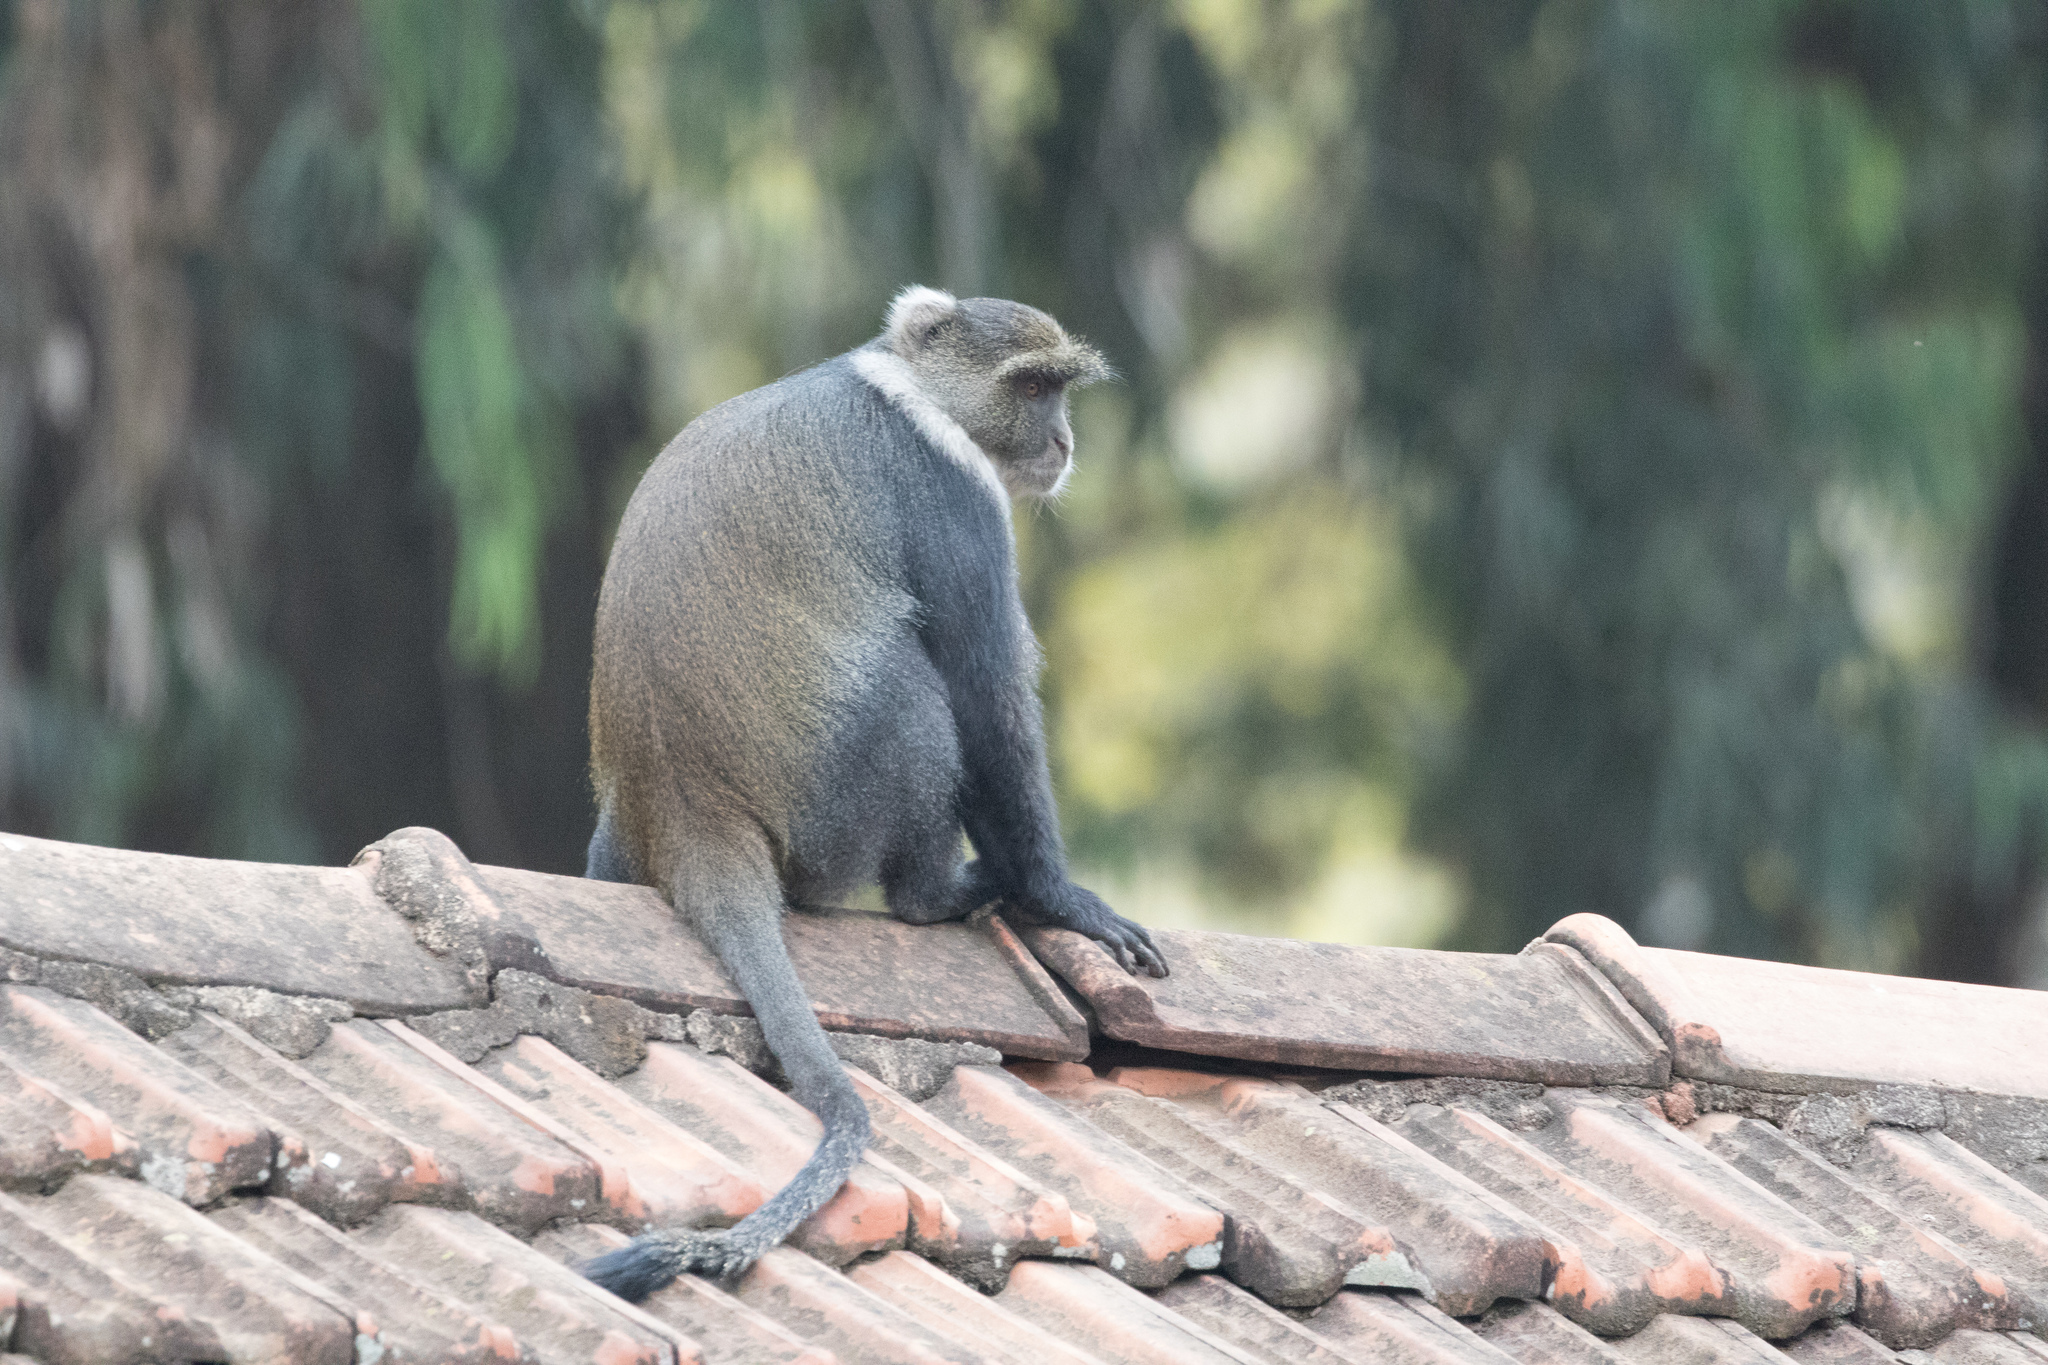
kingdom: Animalia
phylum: Chordata
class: Mammalia
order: Primates
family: Cercopithecidae
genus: Cercopithecus
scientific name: Cercopithecus mitis
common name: Blue monkey
